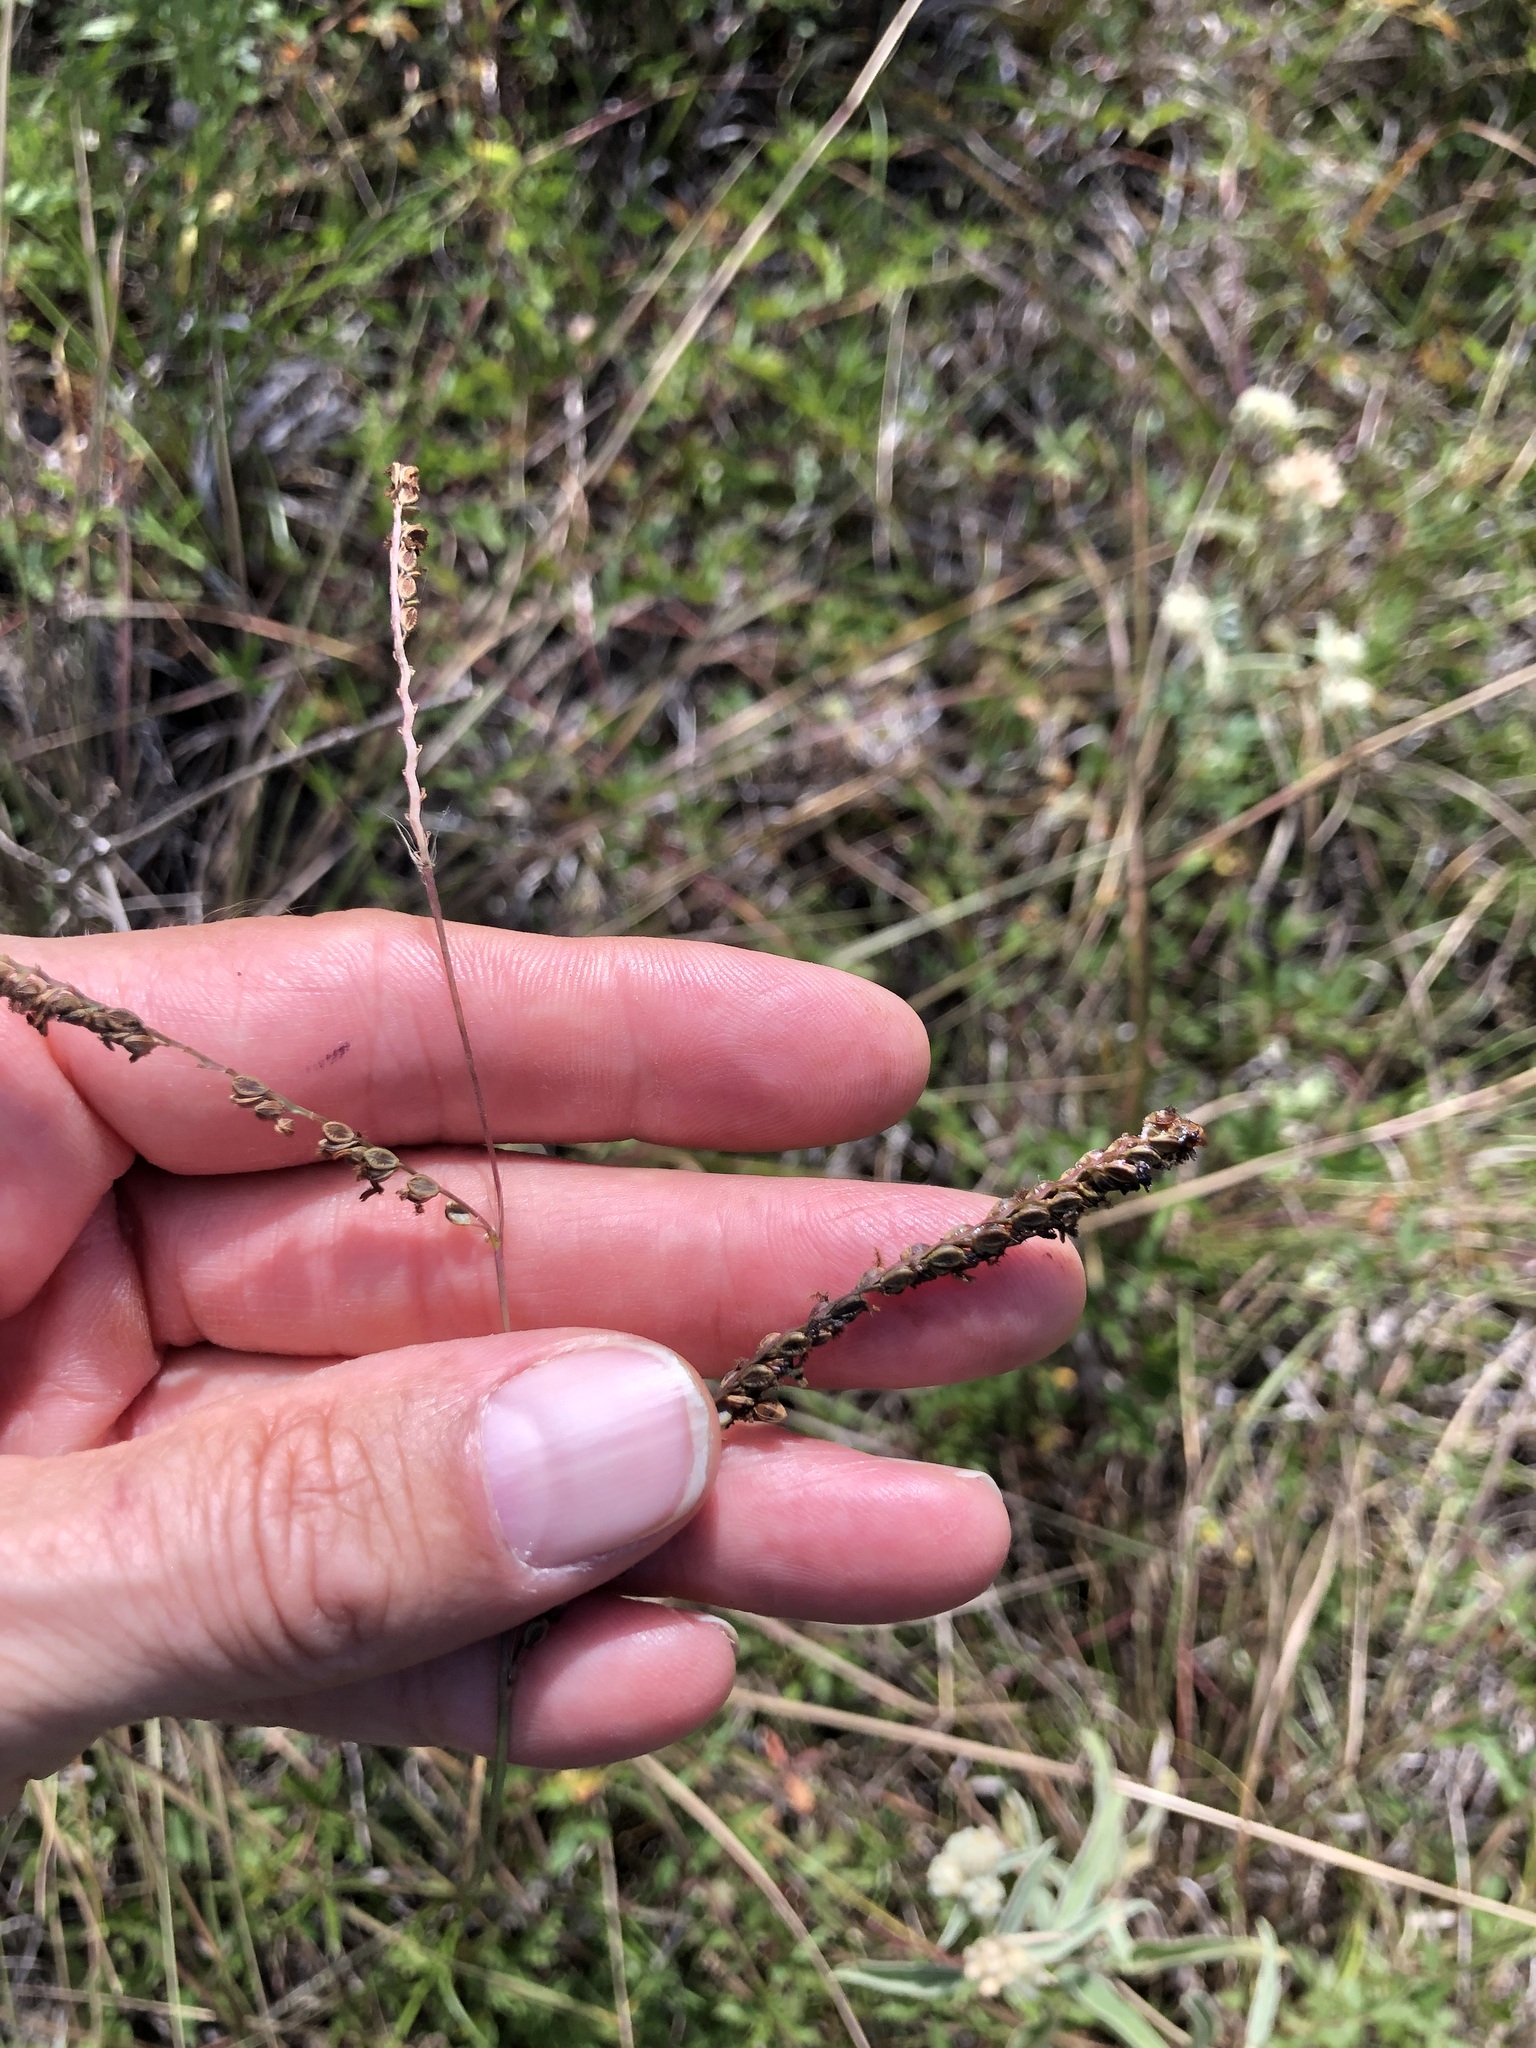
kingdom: Plantae
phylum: Tracheophyta
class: Liliopsida
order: Poales
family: Poaceae
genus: Paspalum
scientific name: Paspalum plicatulum
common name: Top paspalum
